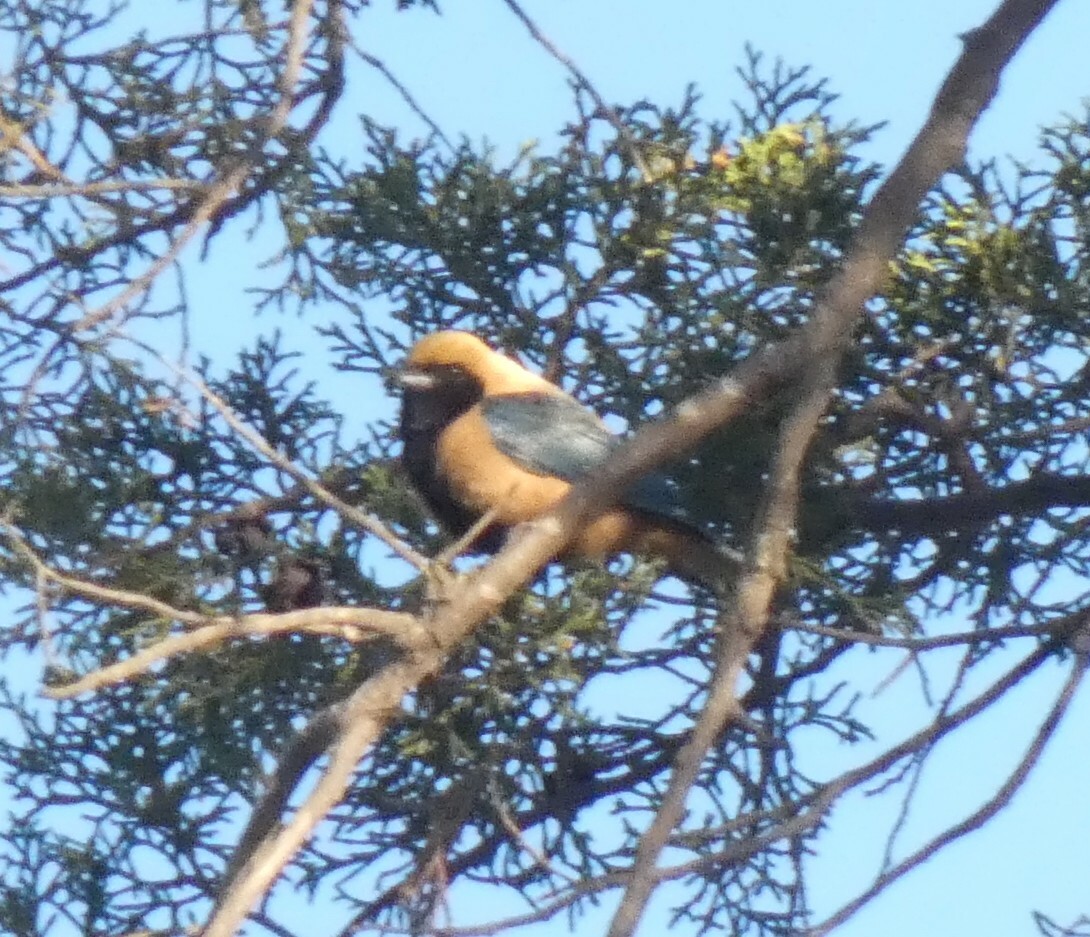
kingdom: Animalia
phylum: Chordata
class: Aves
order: Passeriformes
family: Thraupidae
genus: Stilpnia
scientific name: Stilpnia cayana
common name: Burnished-buff tanager
